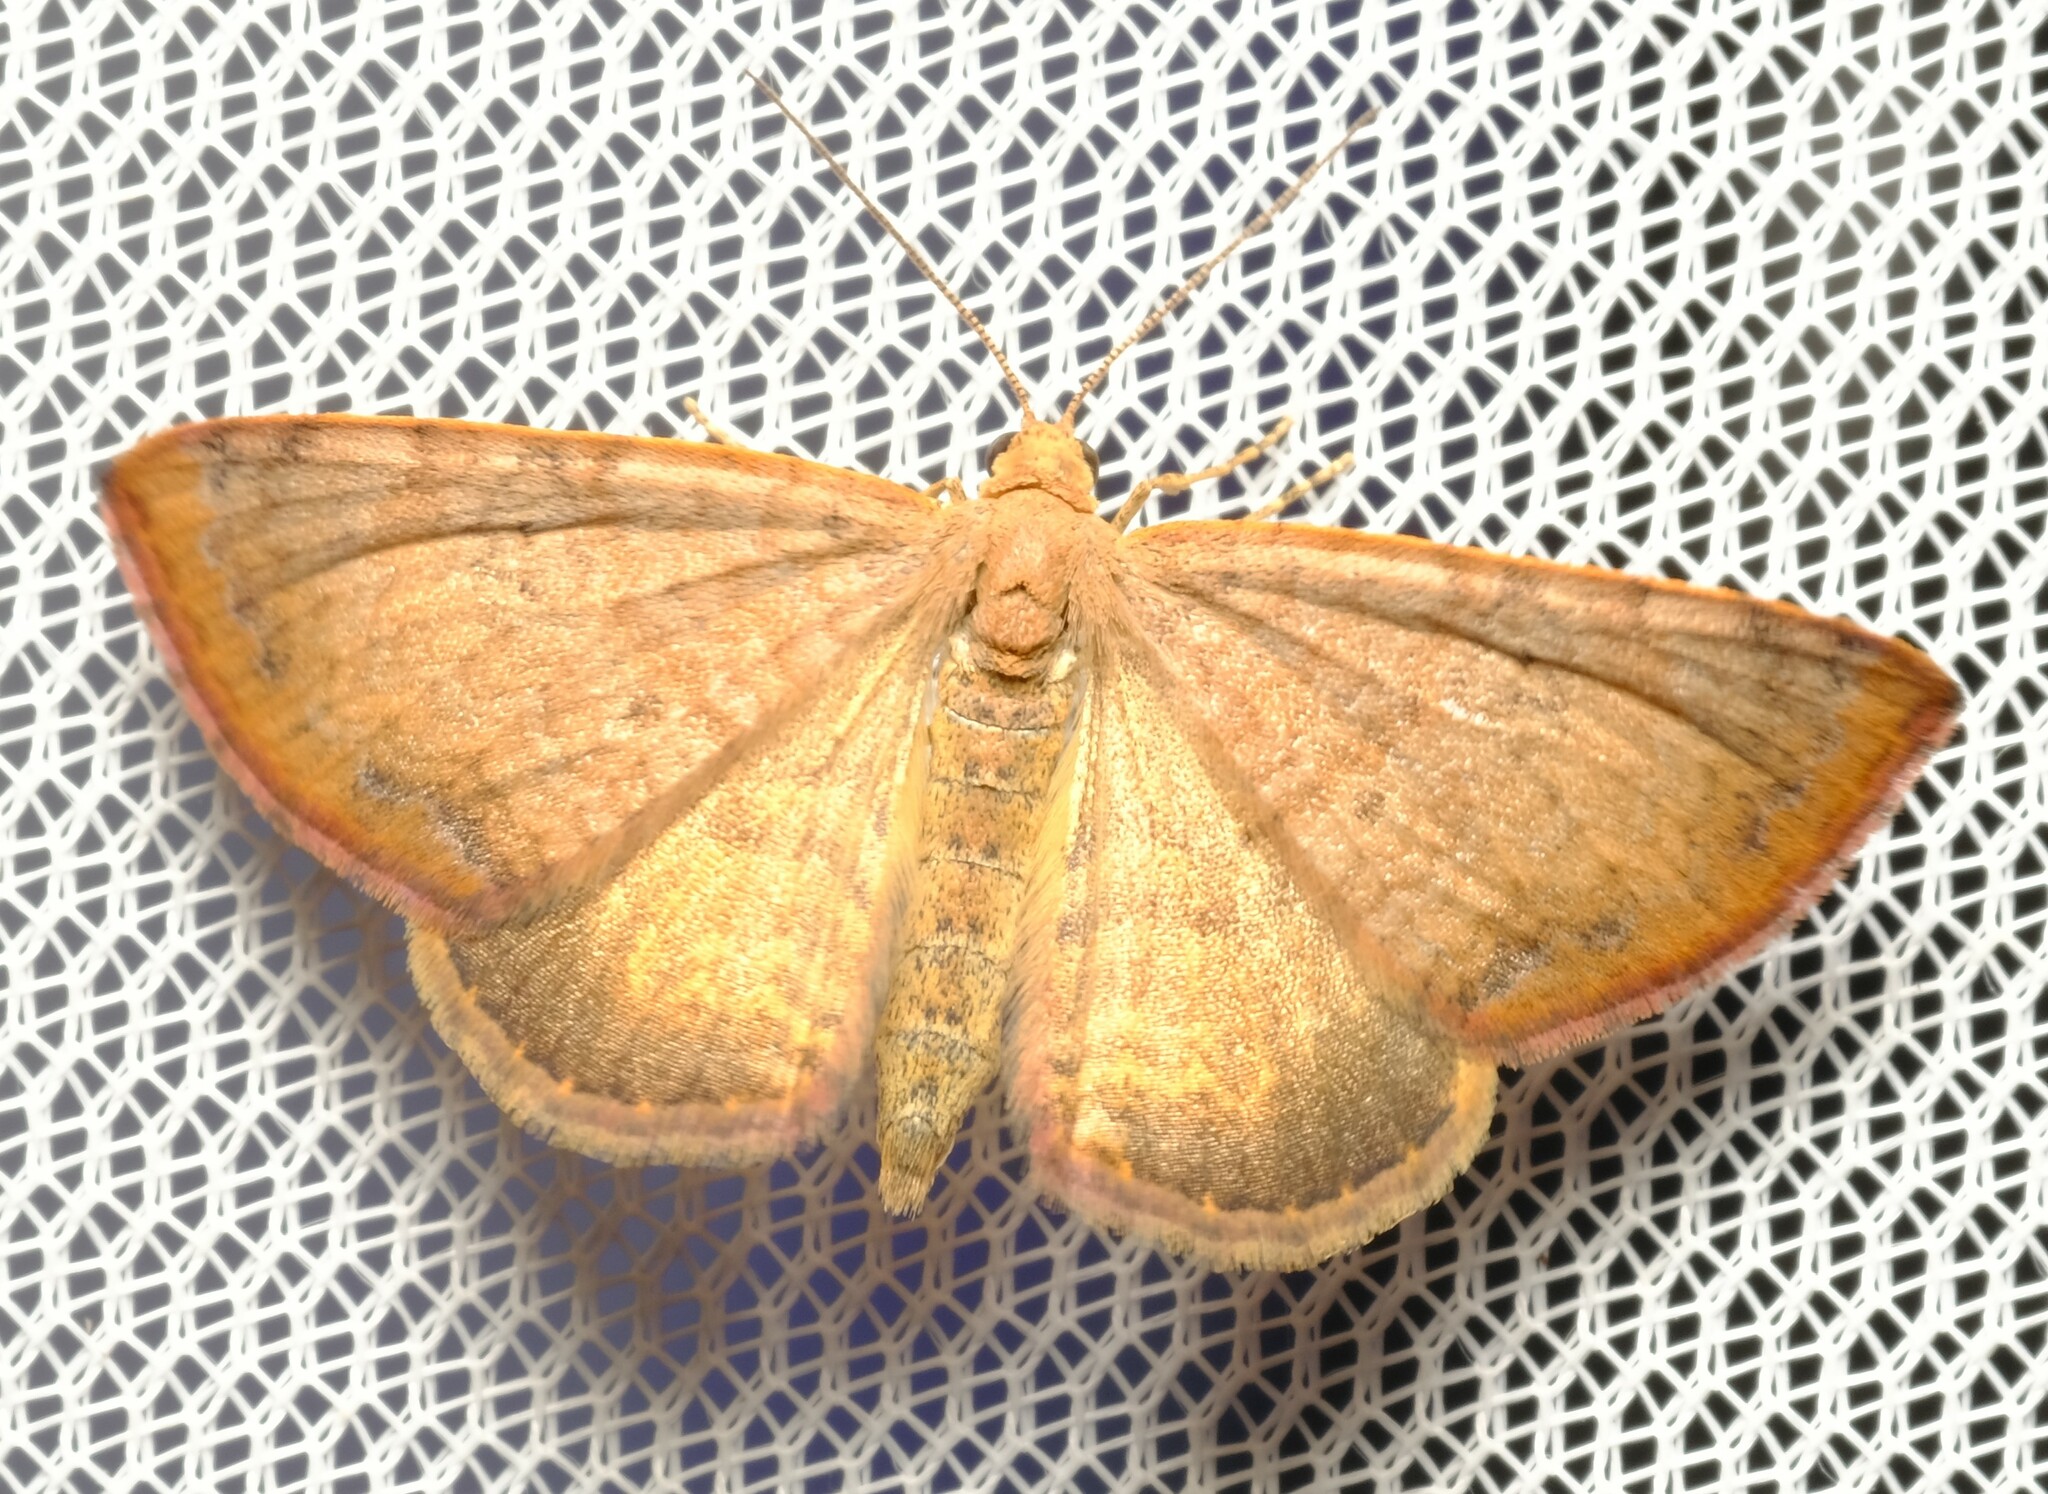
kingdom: Animalia
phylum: Arthropoda
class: Insecta
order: Lepidoptera
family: Geometridae
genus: Chrysolarentia
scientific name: Chrysolarentia mecynata
